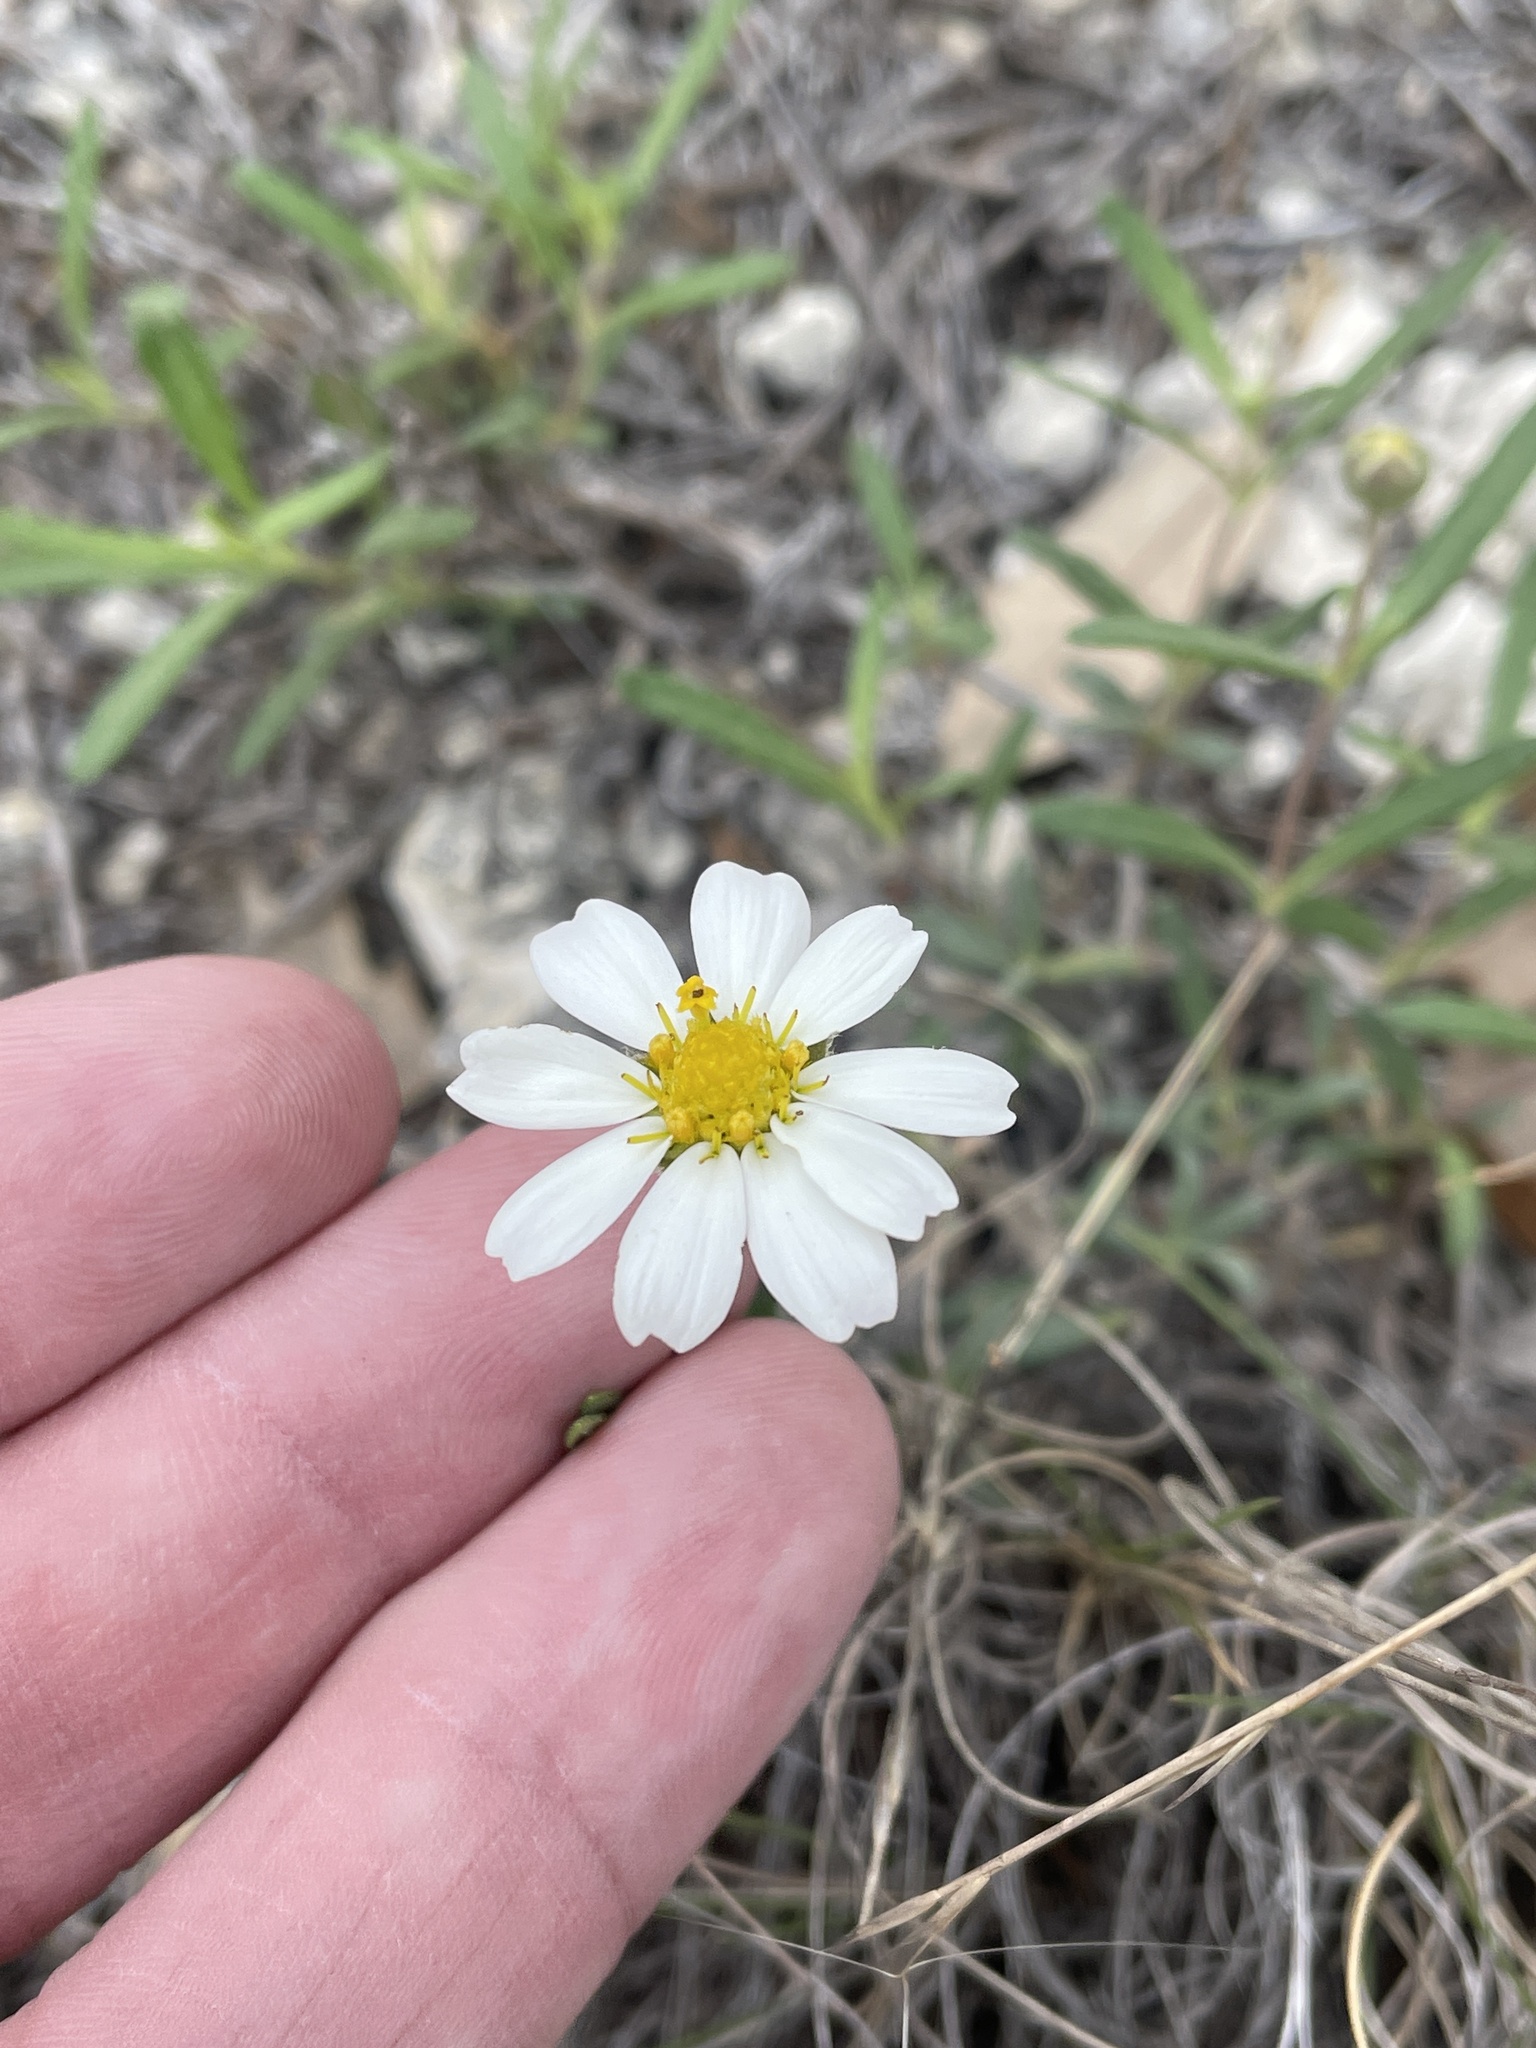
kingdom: Plantae
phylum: Tracheophyta
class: Magnoliopsida
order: Asterales
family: Asteraceae
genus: Melampodium
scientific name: Melampodium leucanthum
